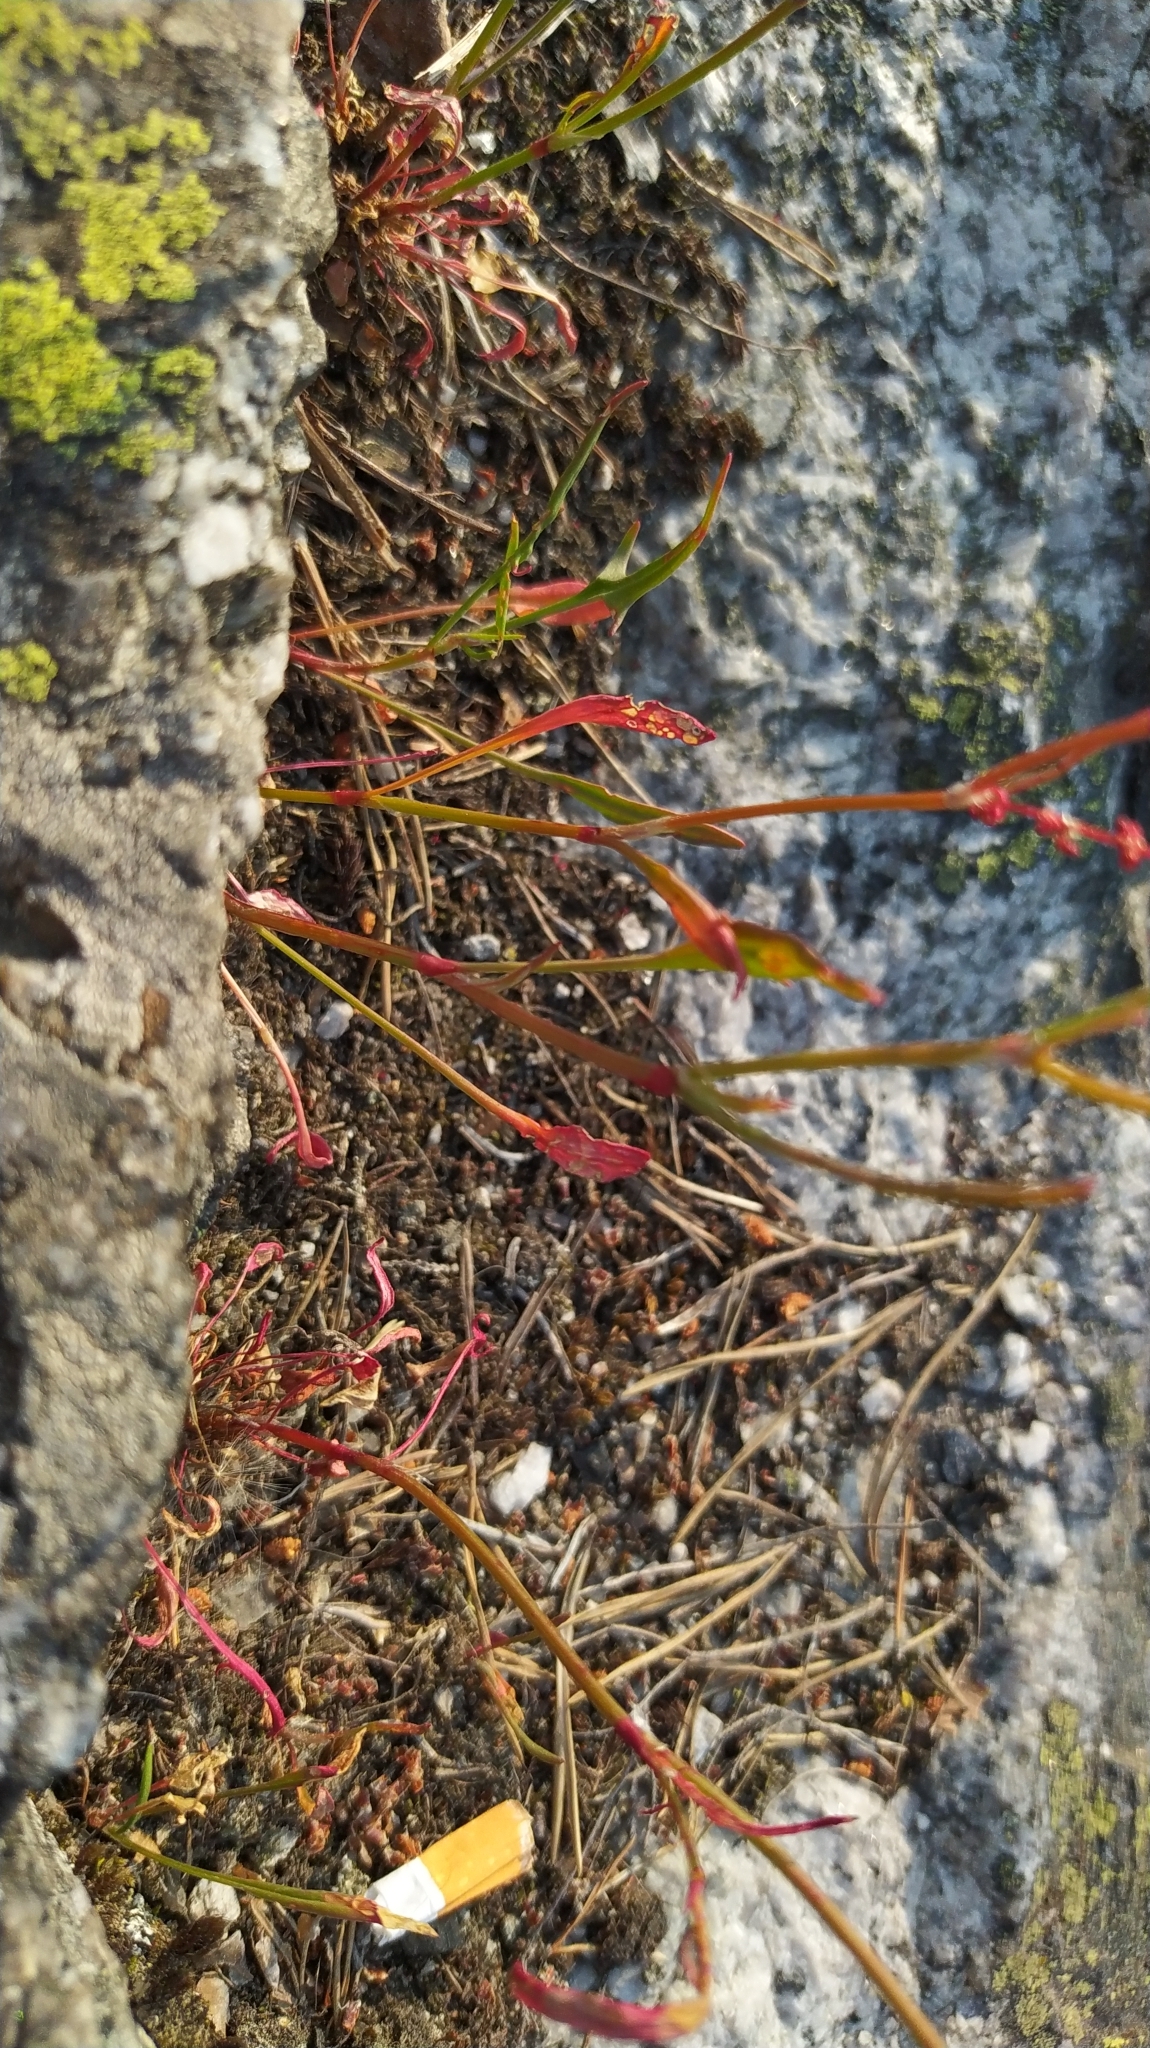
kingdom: Plantae
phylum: Tracheophyta
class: Magnoliopsida
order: Caryophyllales
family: Polygonaceae
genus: Rumex
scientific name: Rumex acetosella
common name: Common sheep sorrel
